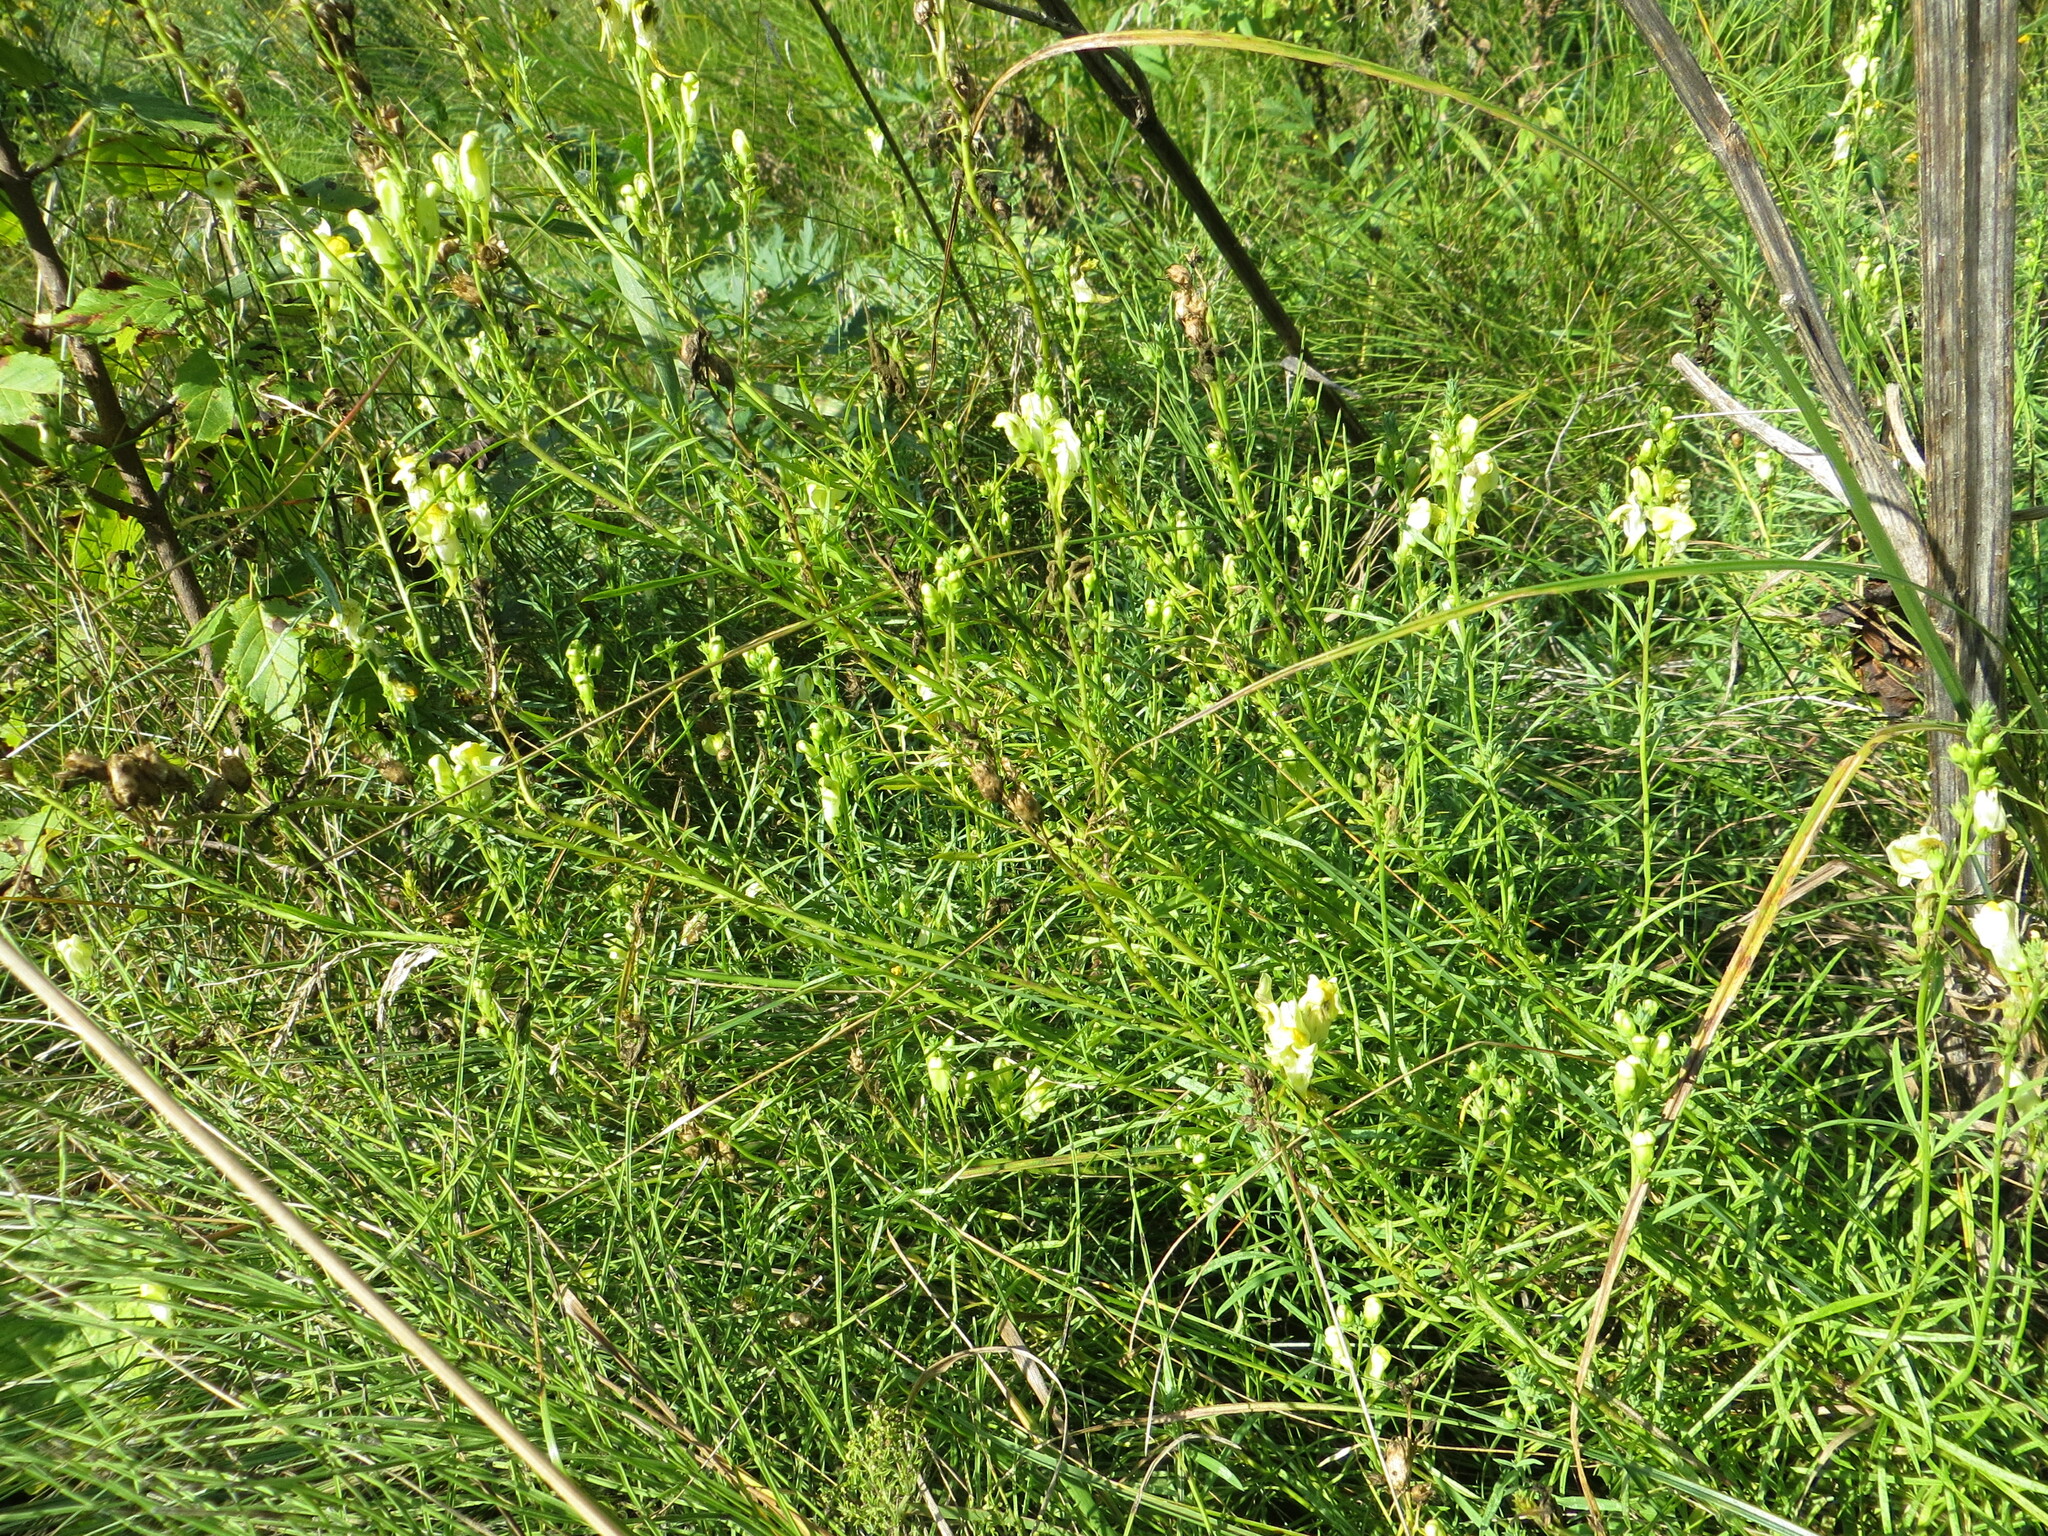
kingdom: Plantae
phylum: Tracheophyta
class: Magnoliopsida
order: Lamiales
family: Plantaginaceae
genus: Linaria
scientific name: Linaria vulgaris
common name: Butter and eggs
